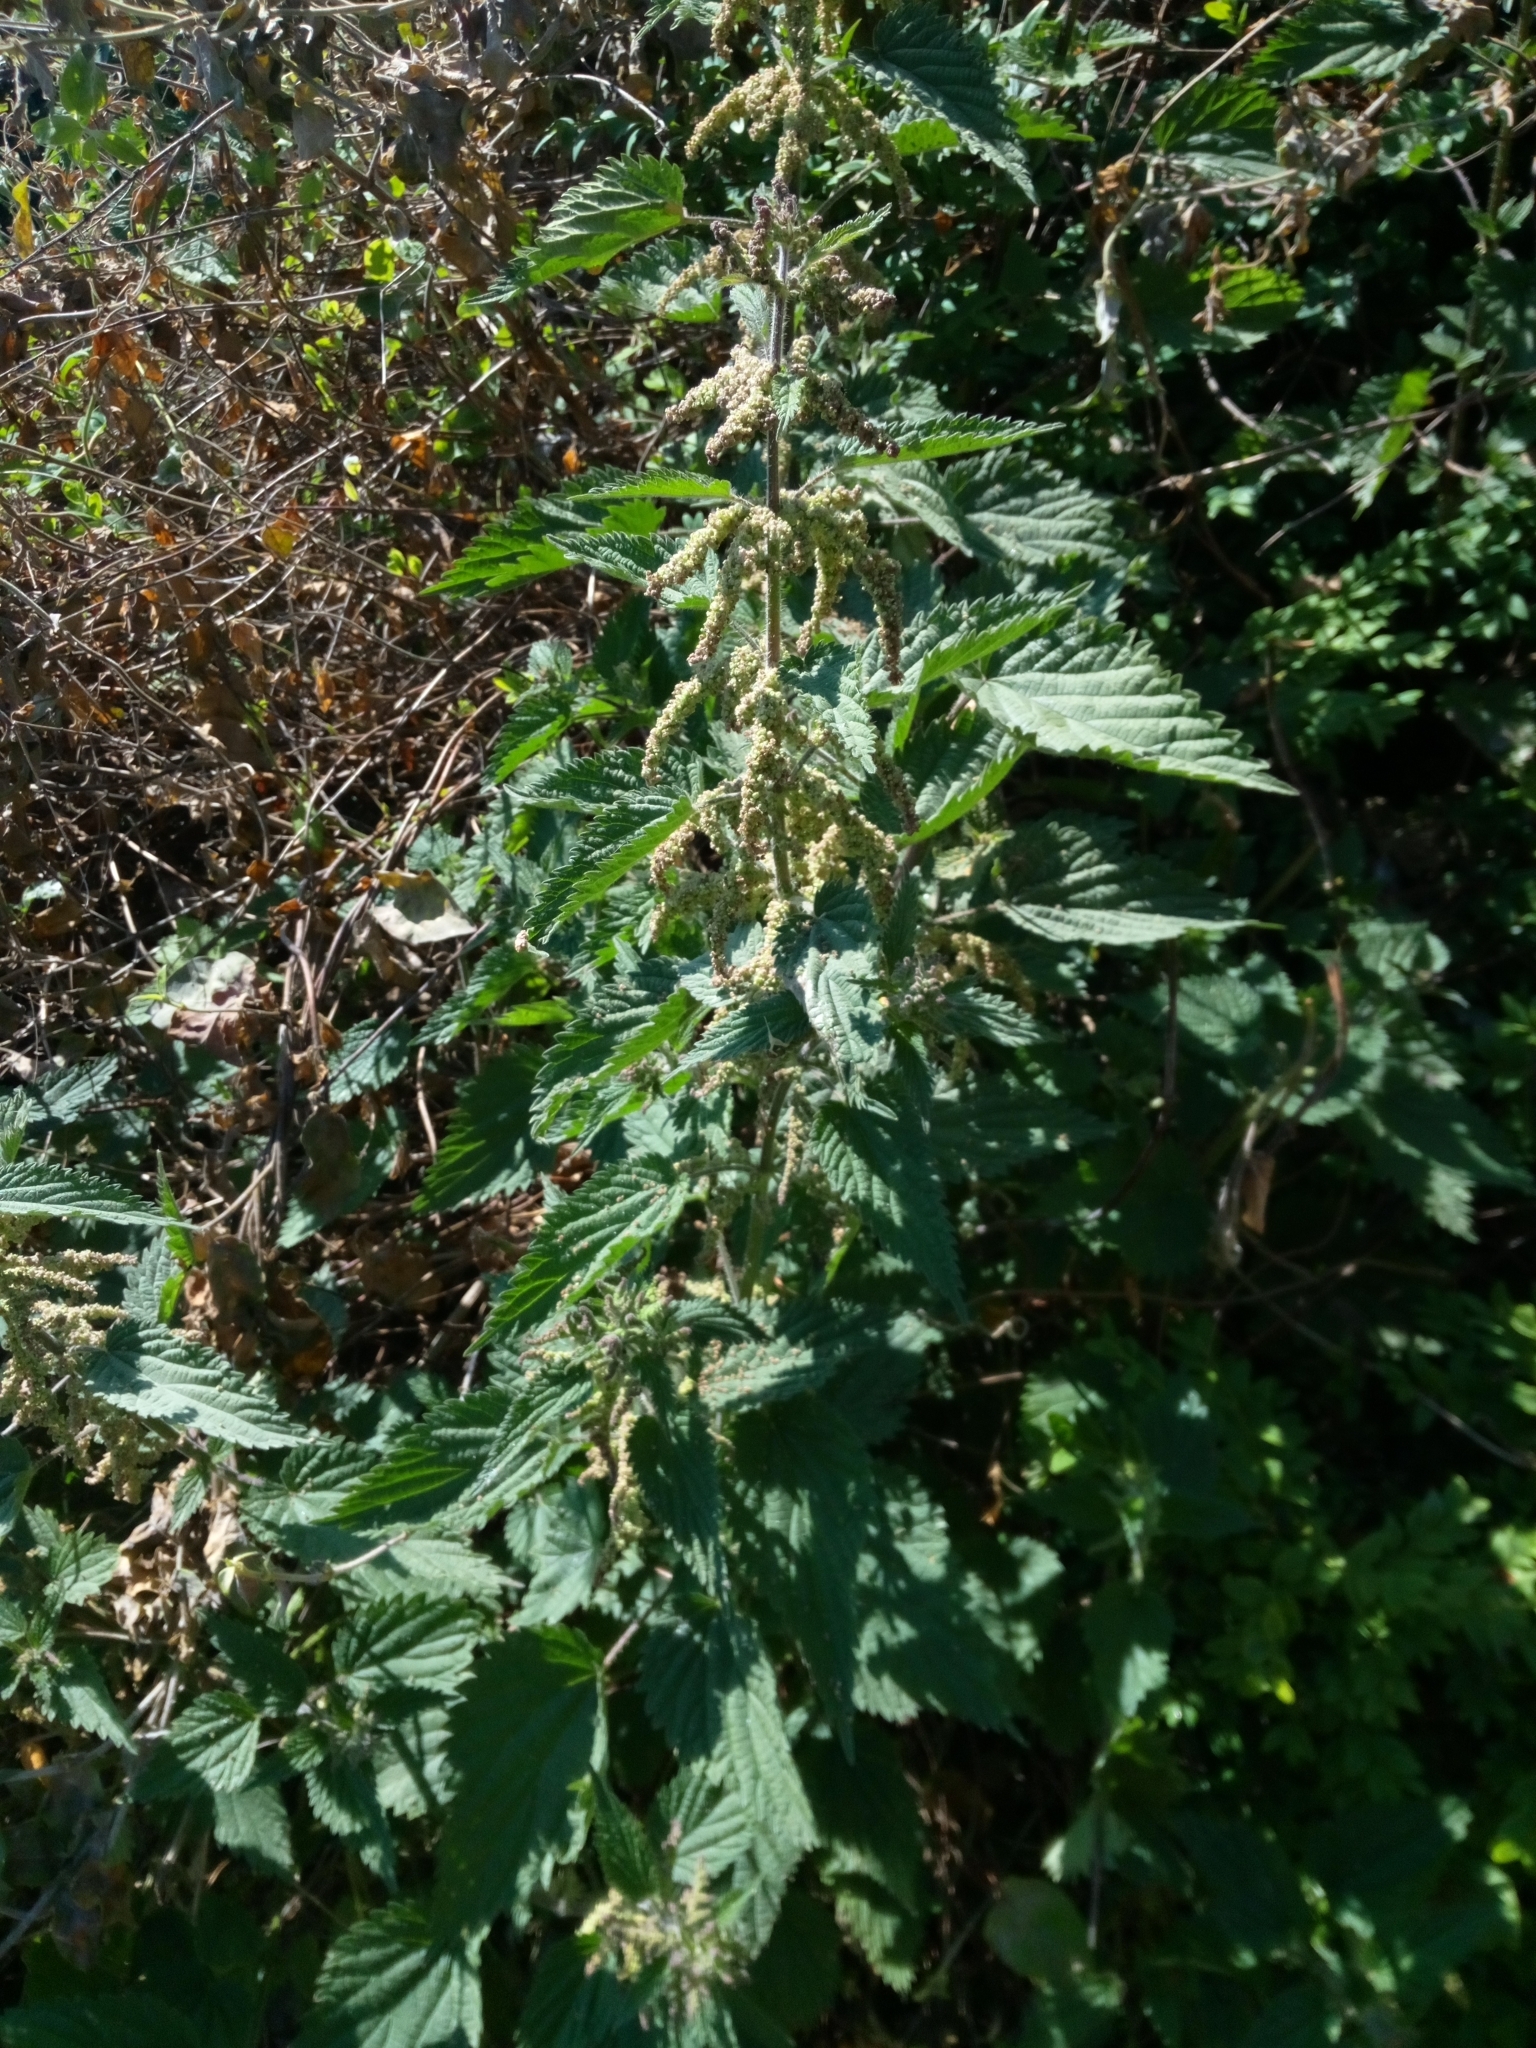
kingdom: Plantae
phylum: Tracheophyta
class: Magnoliopsida
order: Rosales
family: Urticaceae
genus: Urtica
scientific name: Urtica dioica
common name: Common nettle
